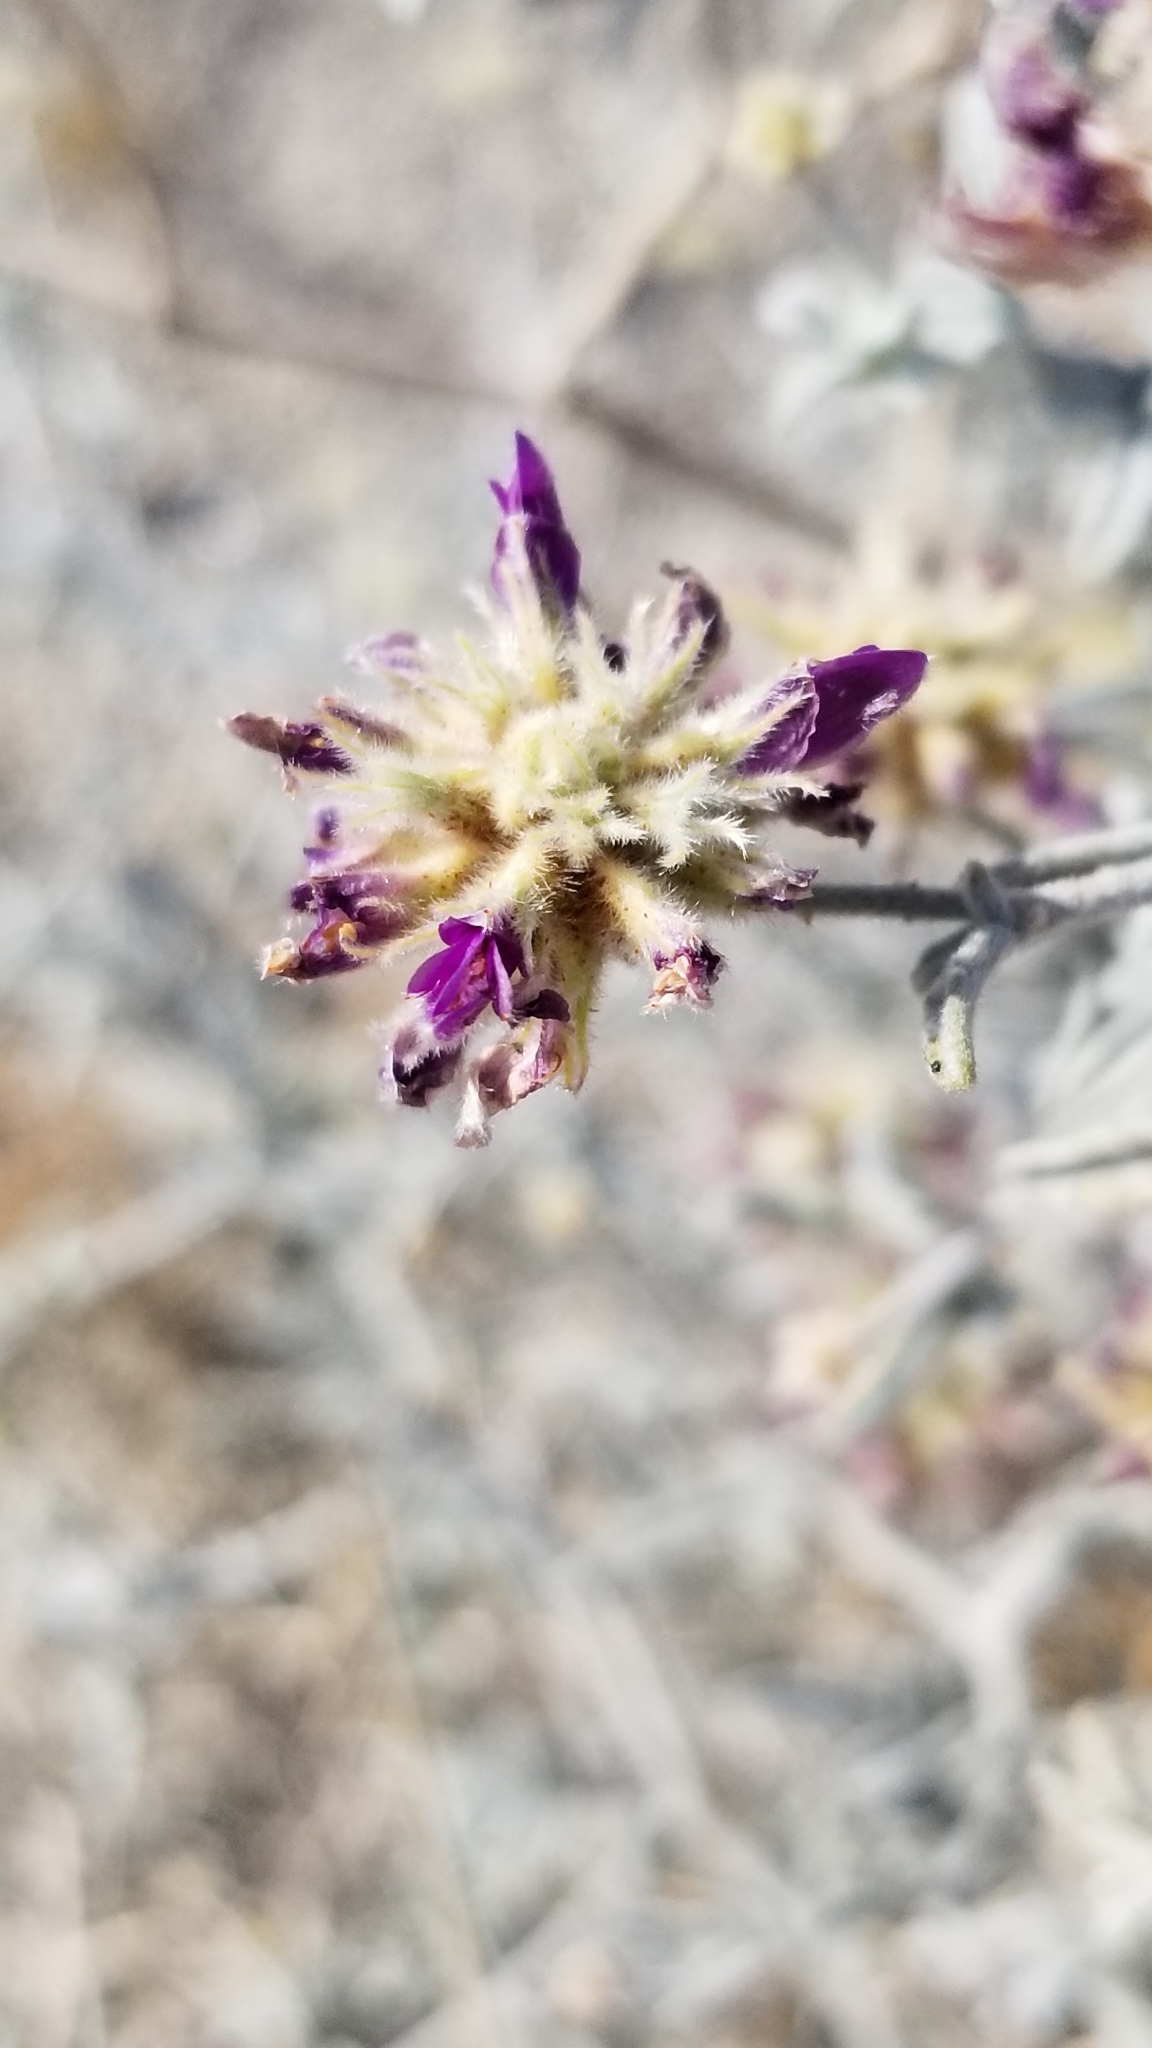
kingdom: Plantae
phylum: Tracheophyta
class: Magnoliopsida
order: Fabales
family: Fabaceae
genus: Psorothamnus
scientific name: Psorothamnus emoryi
